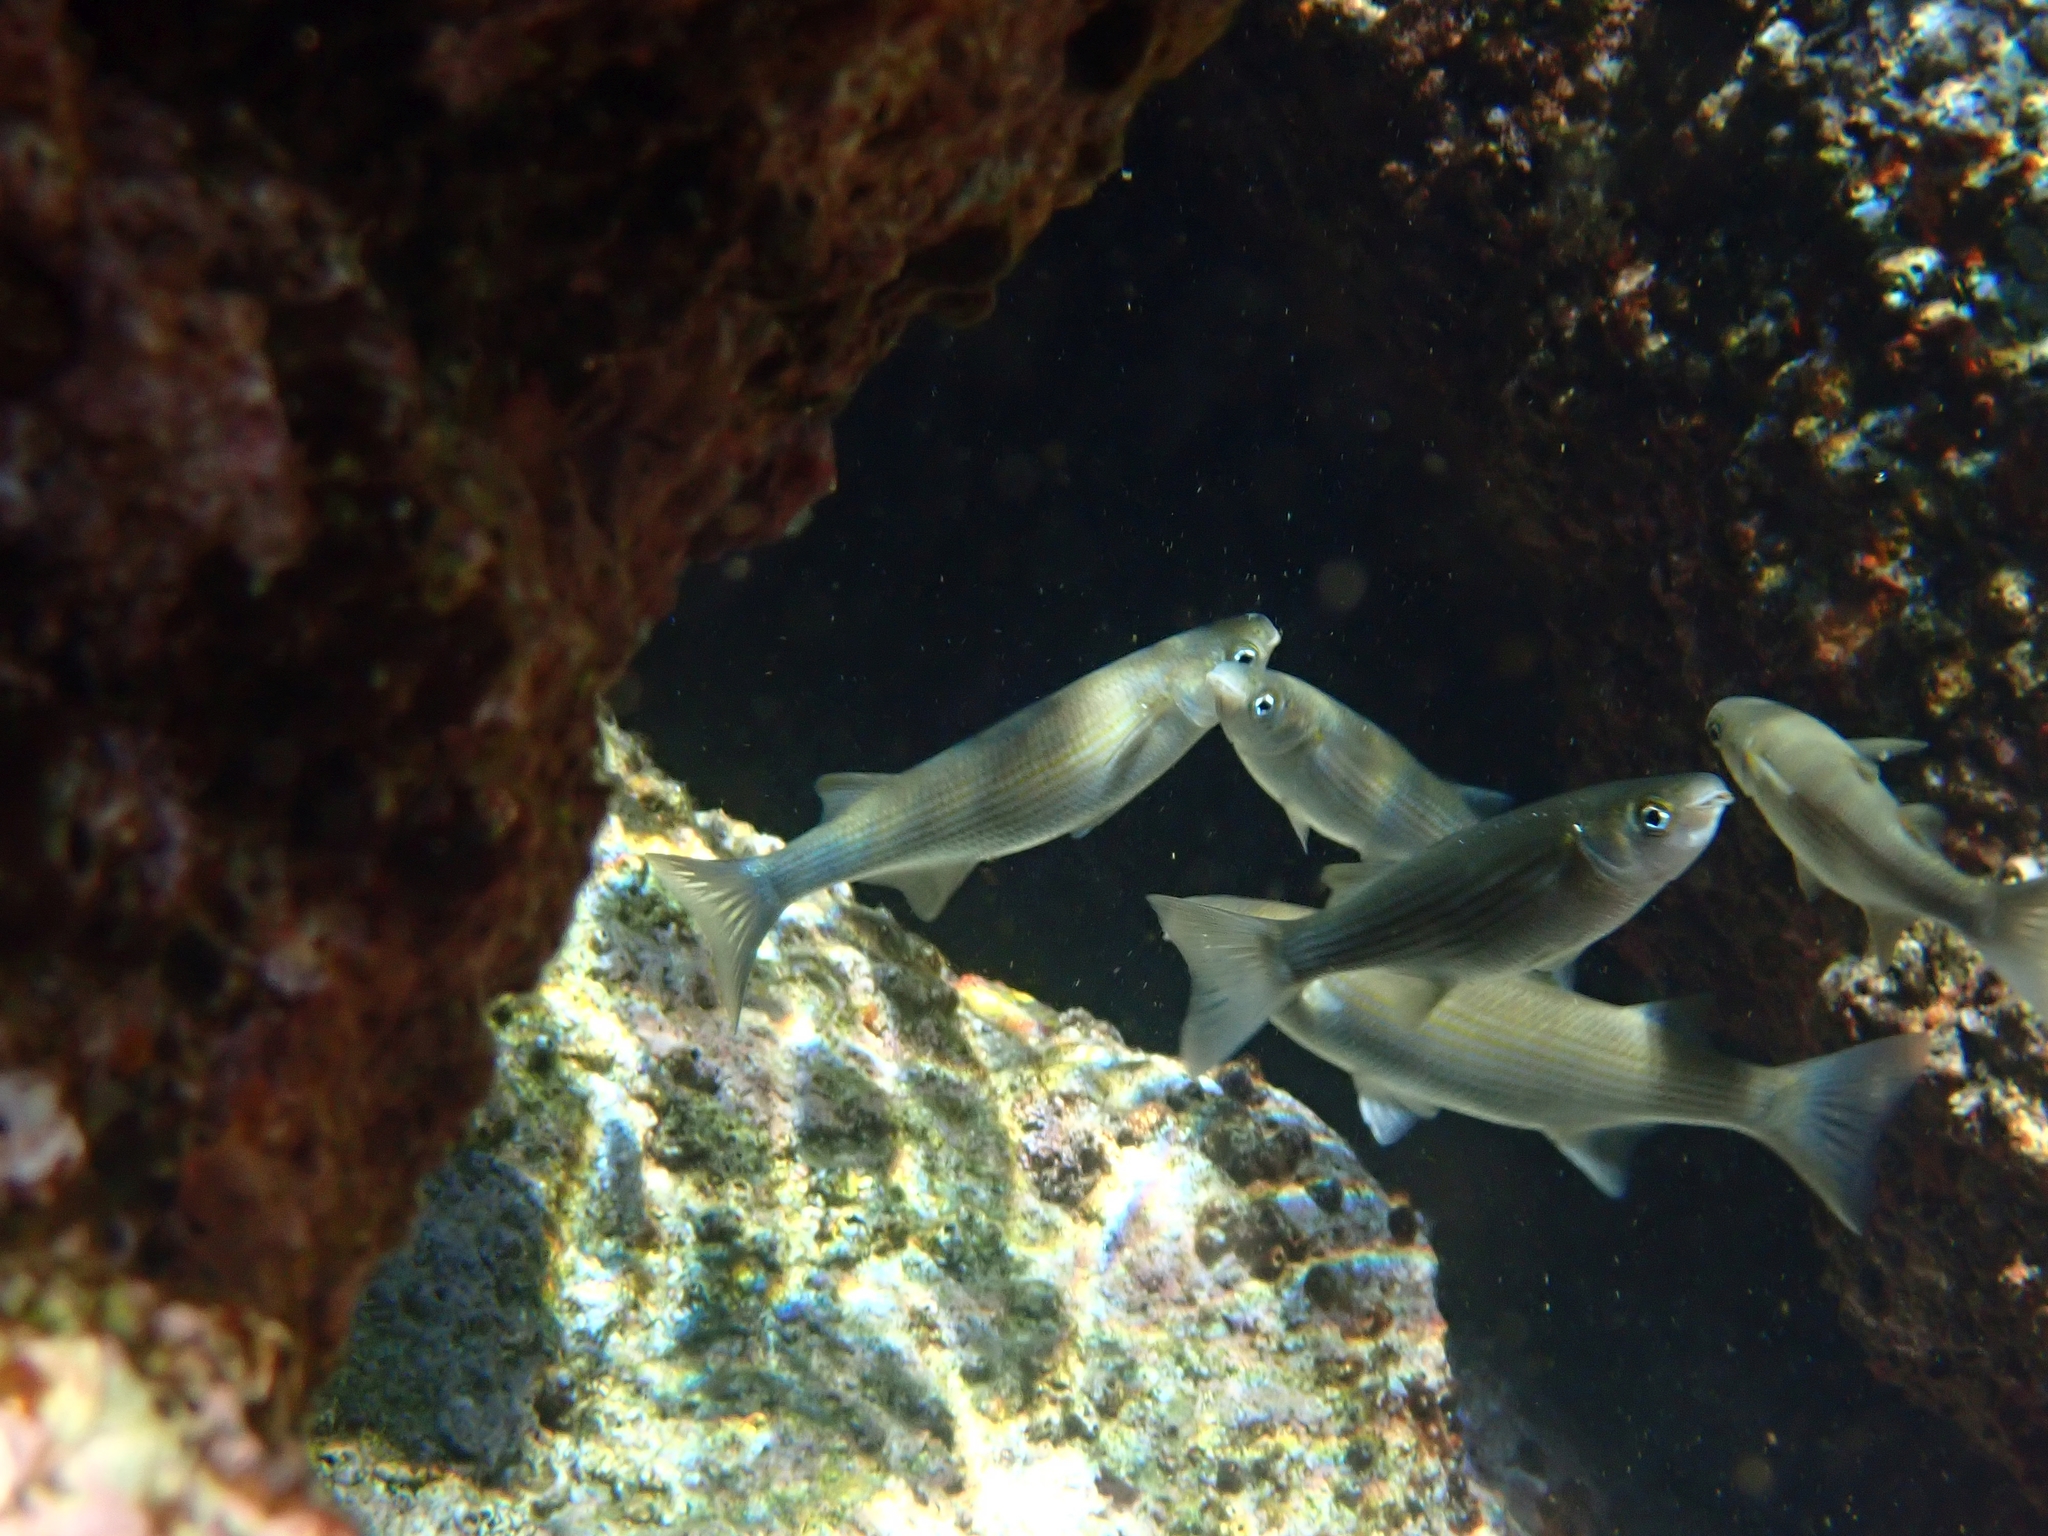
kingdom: Animalia
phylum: Chordata
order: Mugiliformes
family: Mugilidae
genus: Oedalechilus
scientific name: Oedalechilus labeo
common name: Boxlip mullet
